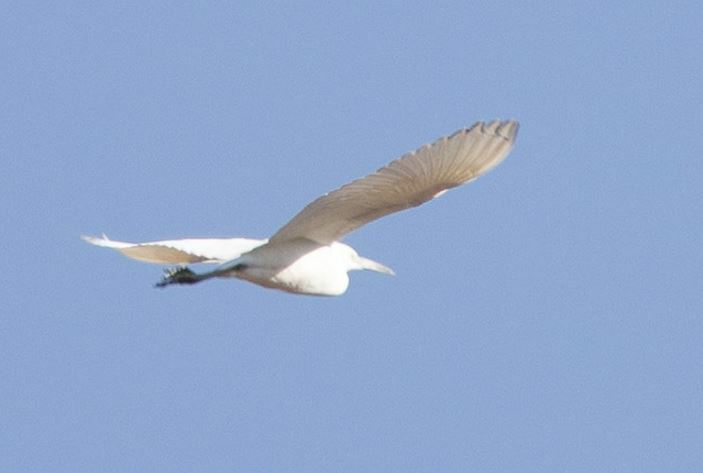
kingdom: Animalia
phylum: Chordata
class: Aves
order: Pelecaniformes
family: Ardeidae
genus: Egretta
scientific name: Egretta caerulea
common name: Little blue heron
